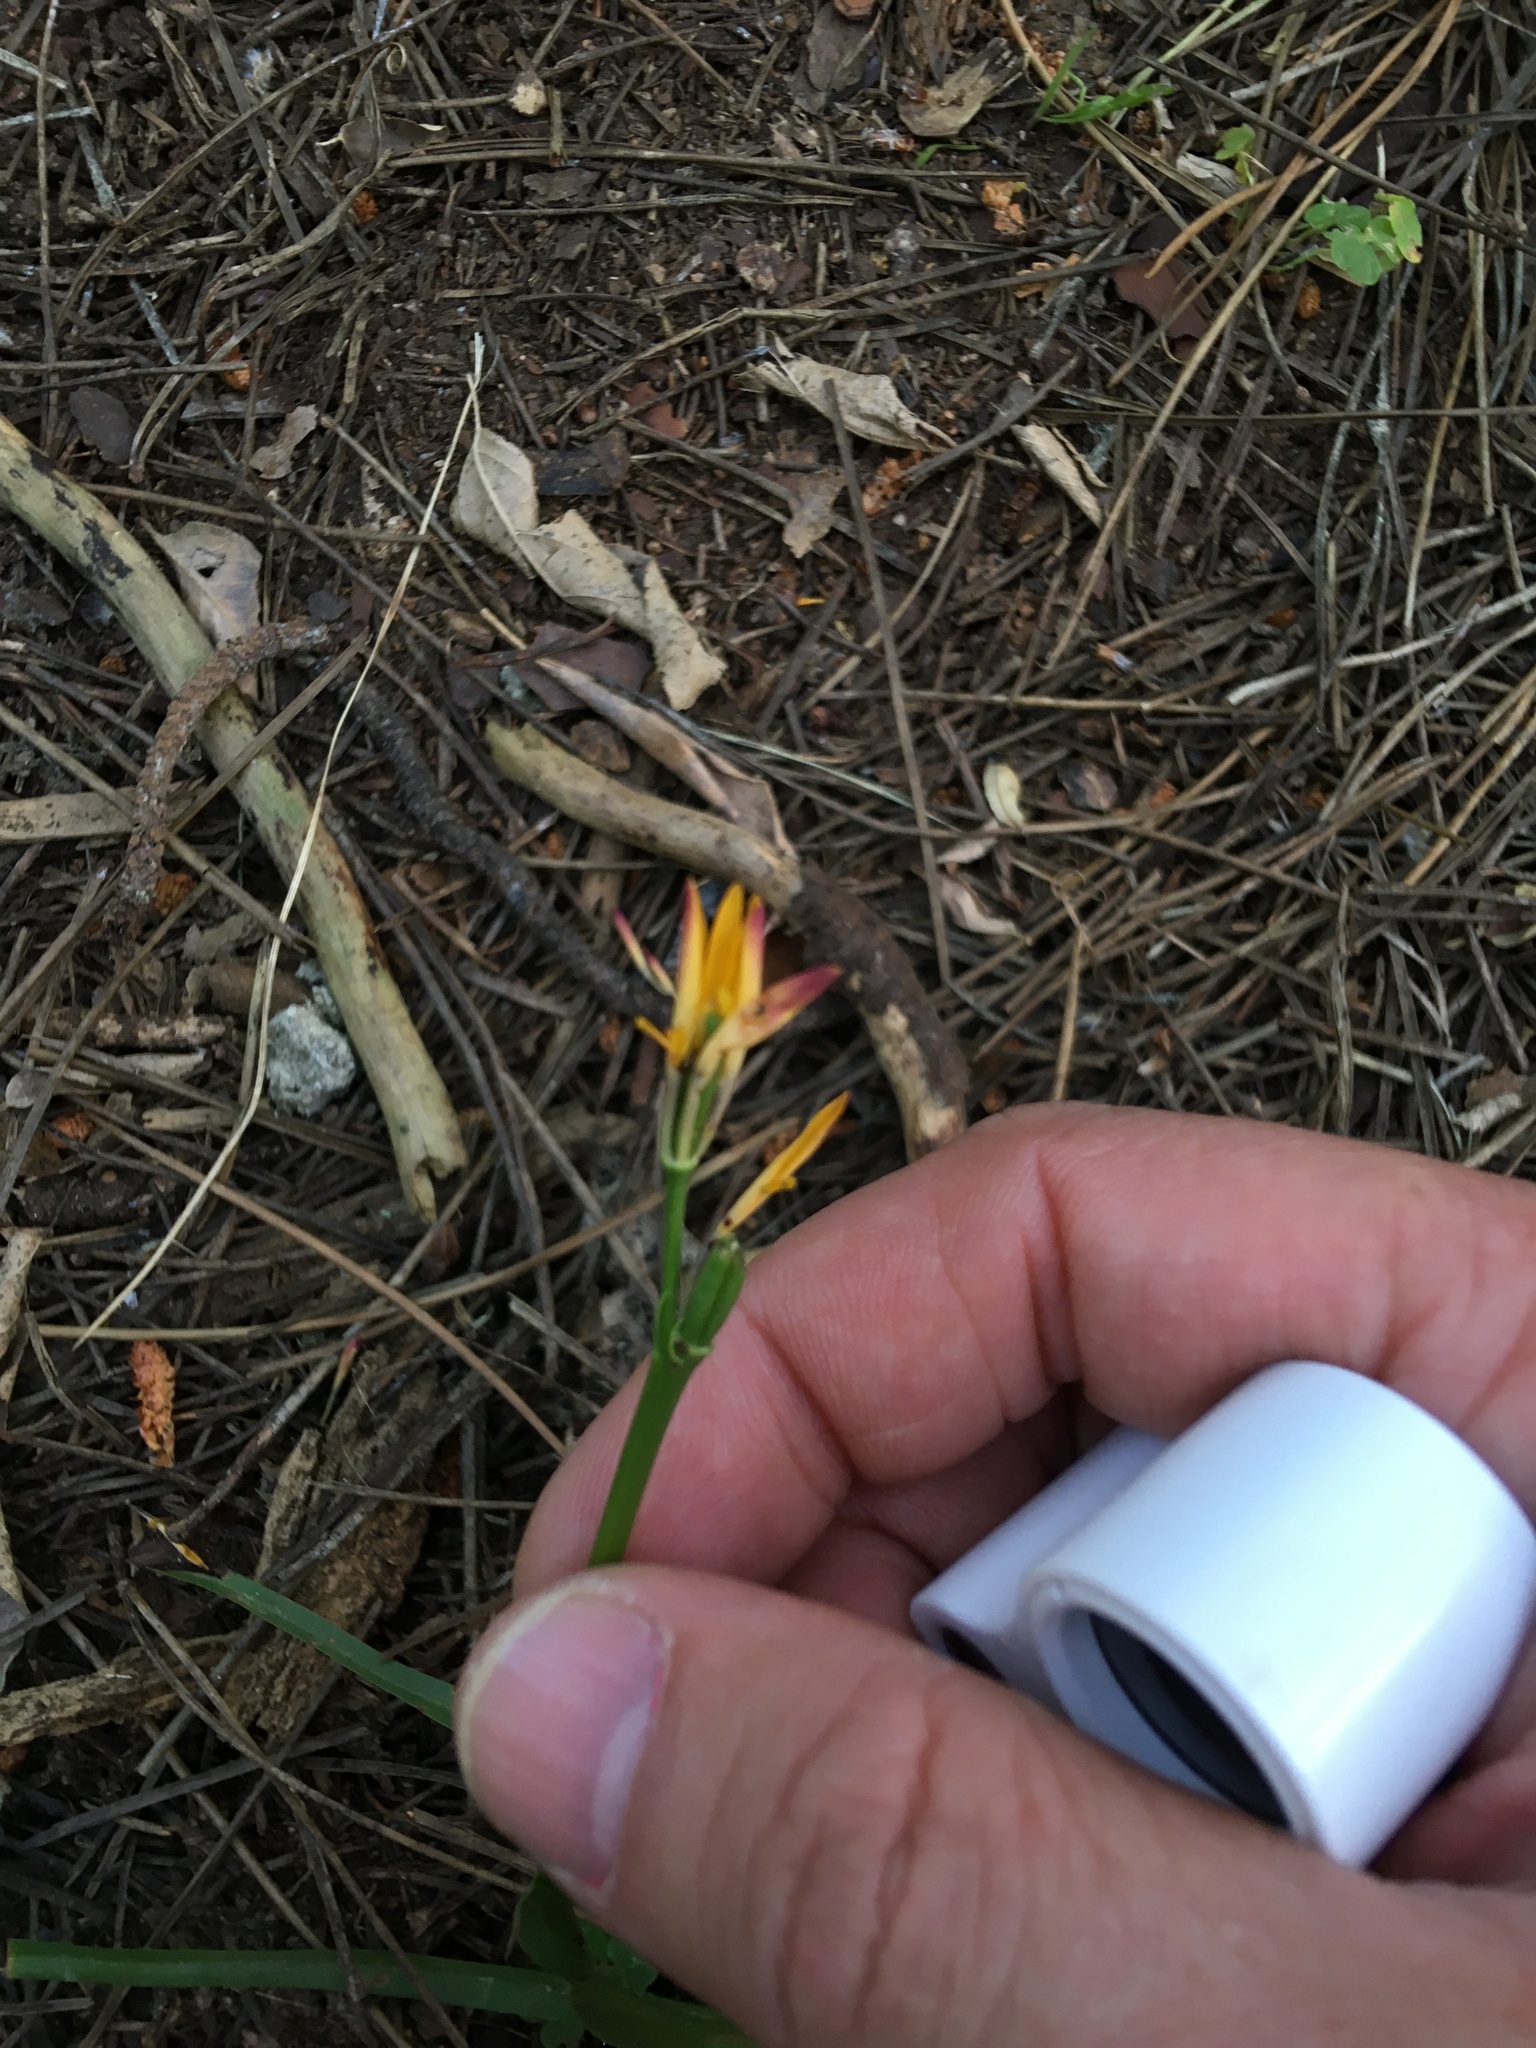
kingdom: Plantae
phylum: Tracheophyta
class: Liliopsida
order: Liliales
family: Colchicaceae
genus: Baeometra
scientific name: Baeometra uniflora
